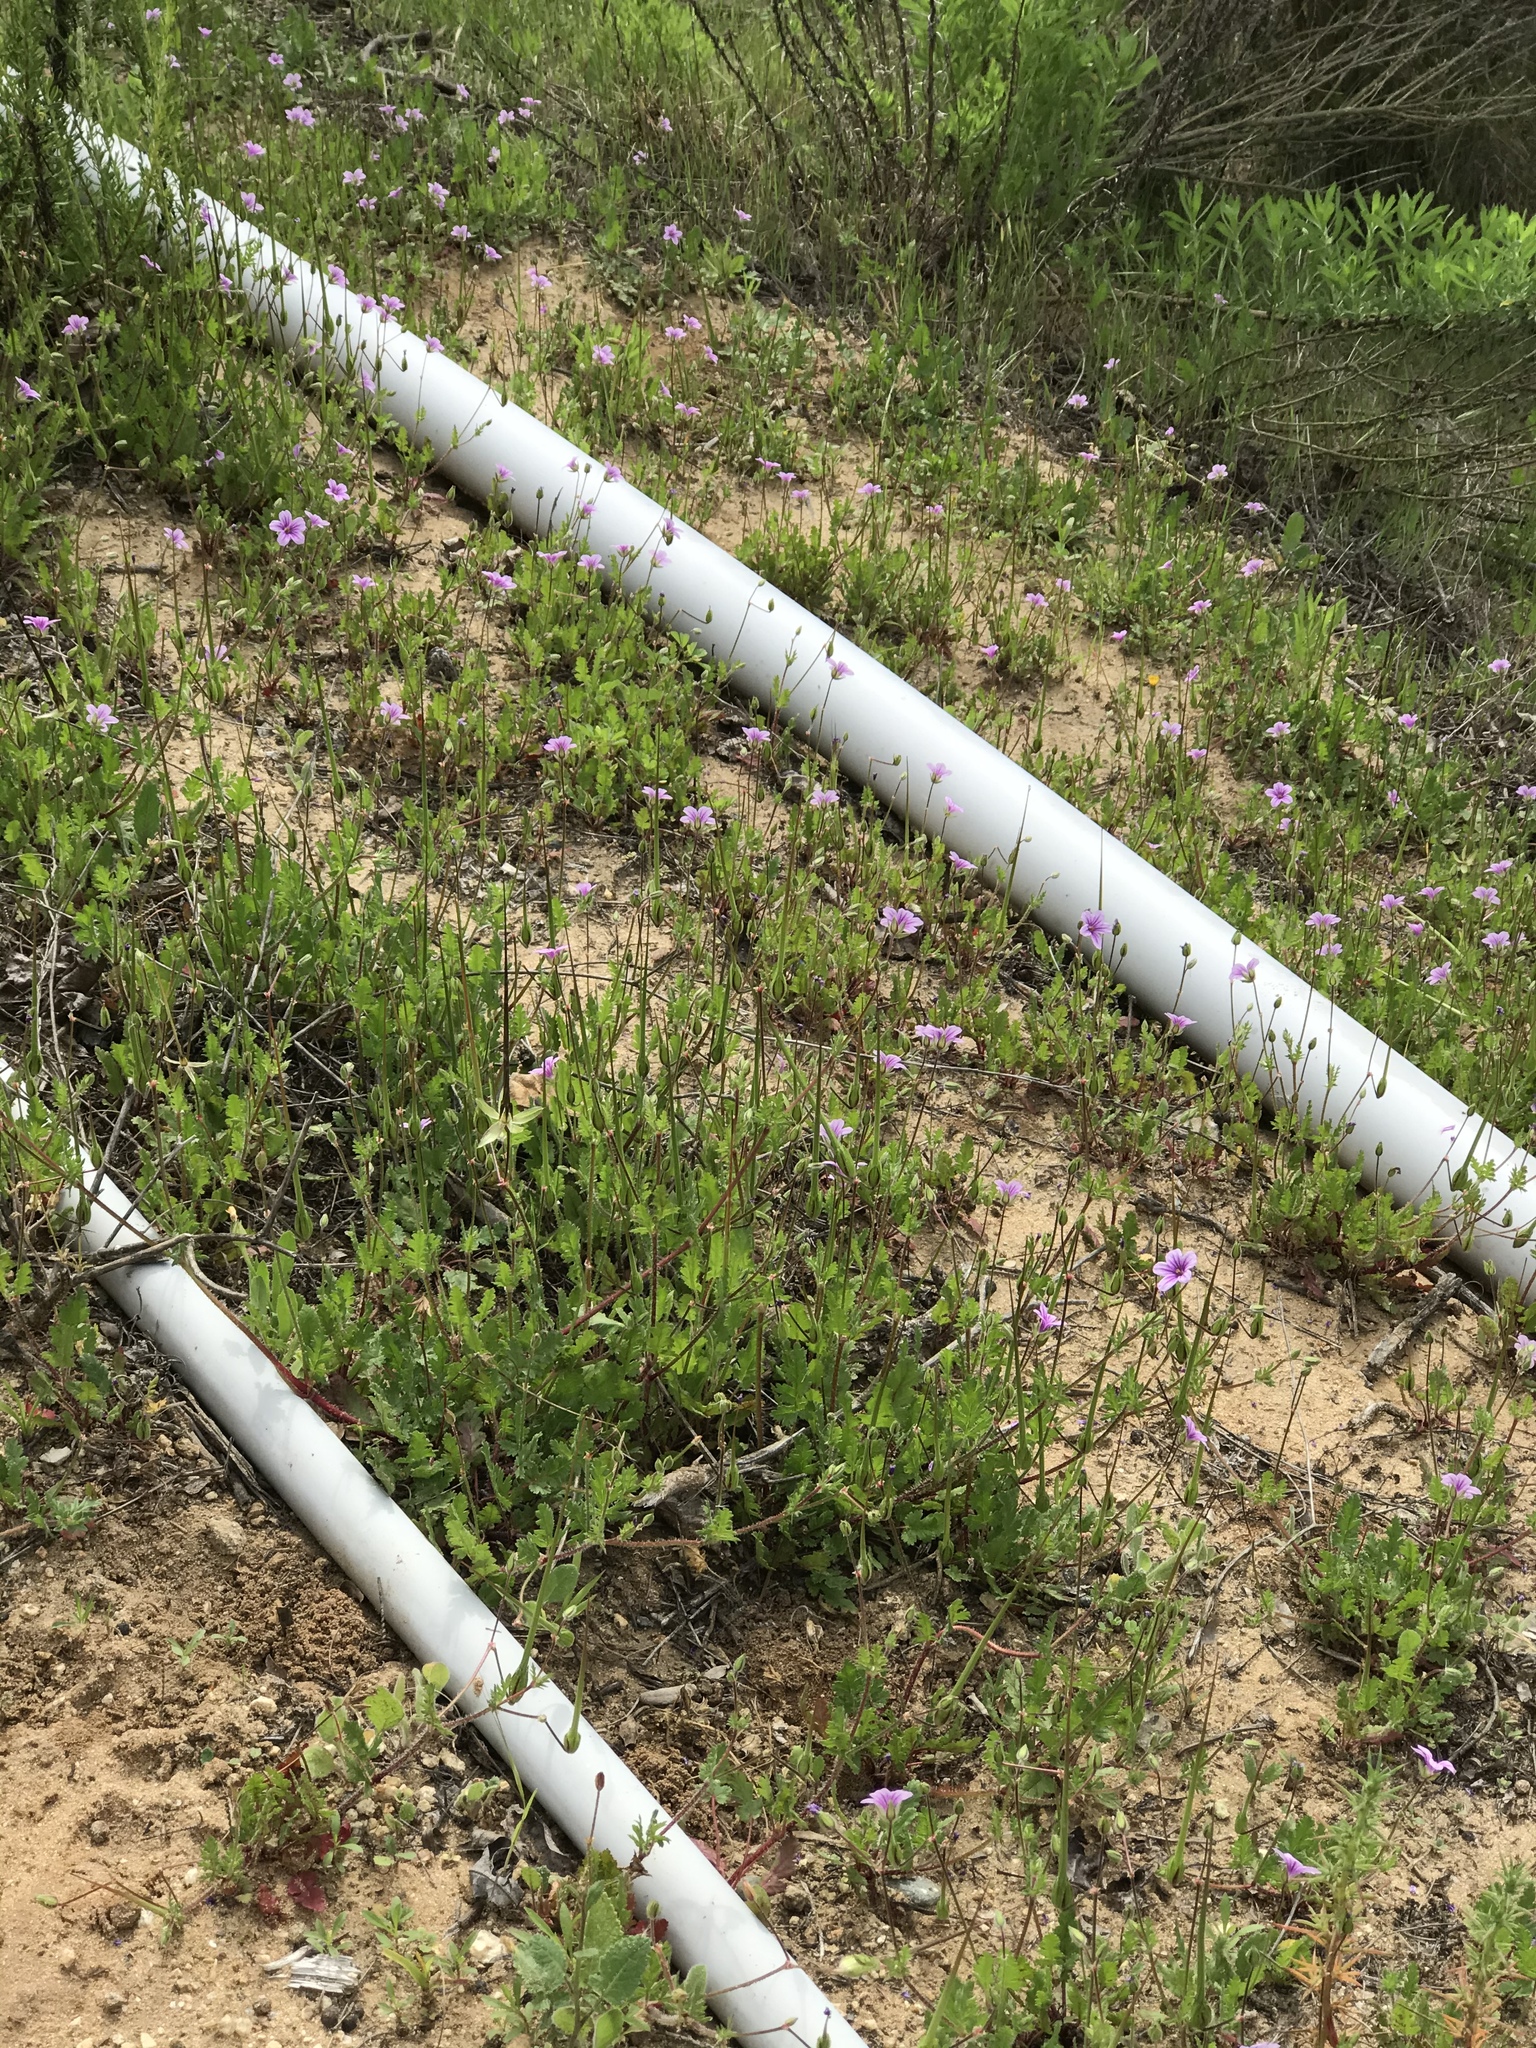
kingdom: Plantae
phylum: Tracheophyta
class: Magnoliopsida
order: Geraniales
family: Geraniaceae
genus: Erodium
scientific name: Erodium botrys
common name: Mediterranean stork's-bill
